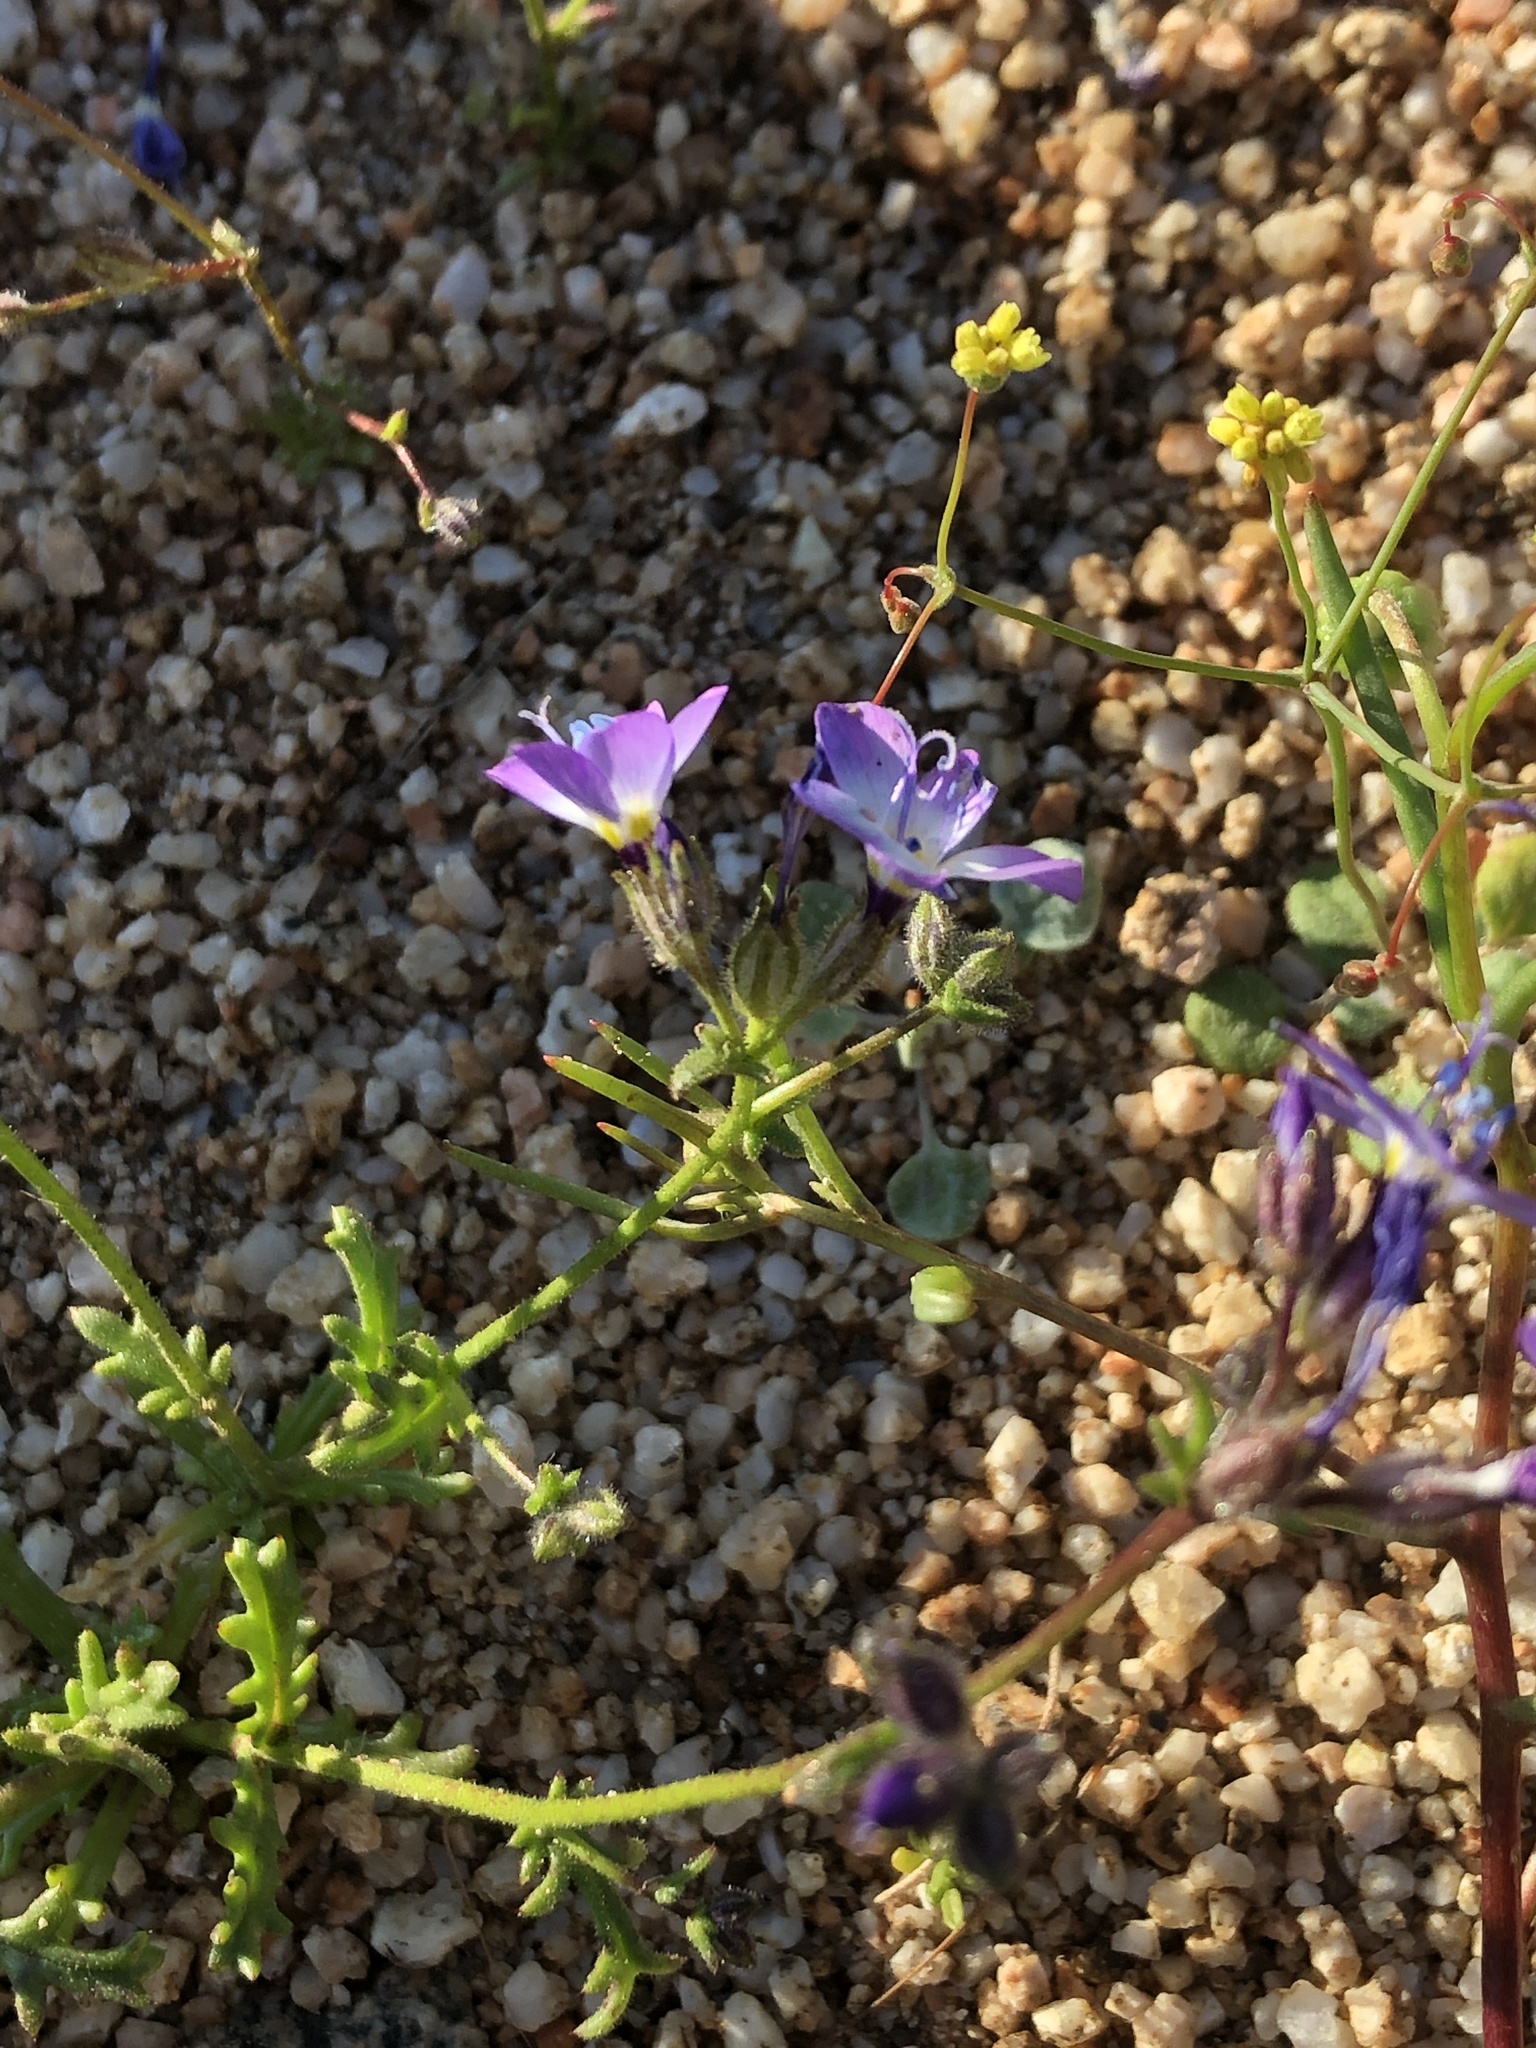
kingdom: Plantae
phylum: Tracheophyta
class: Magnoliopsida
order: Ericales
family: Polemoniaceae
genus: Gilia
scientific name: Gilia brecciarum
